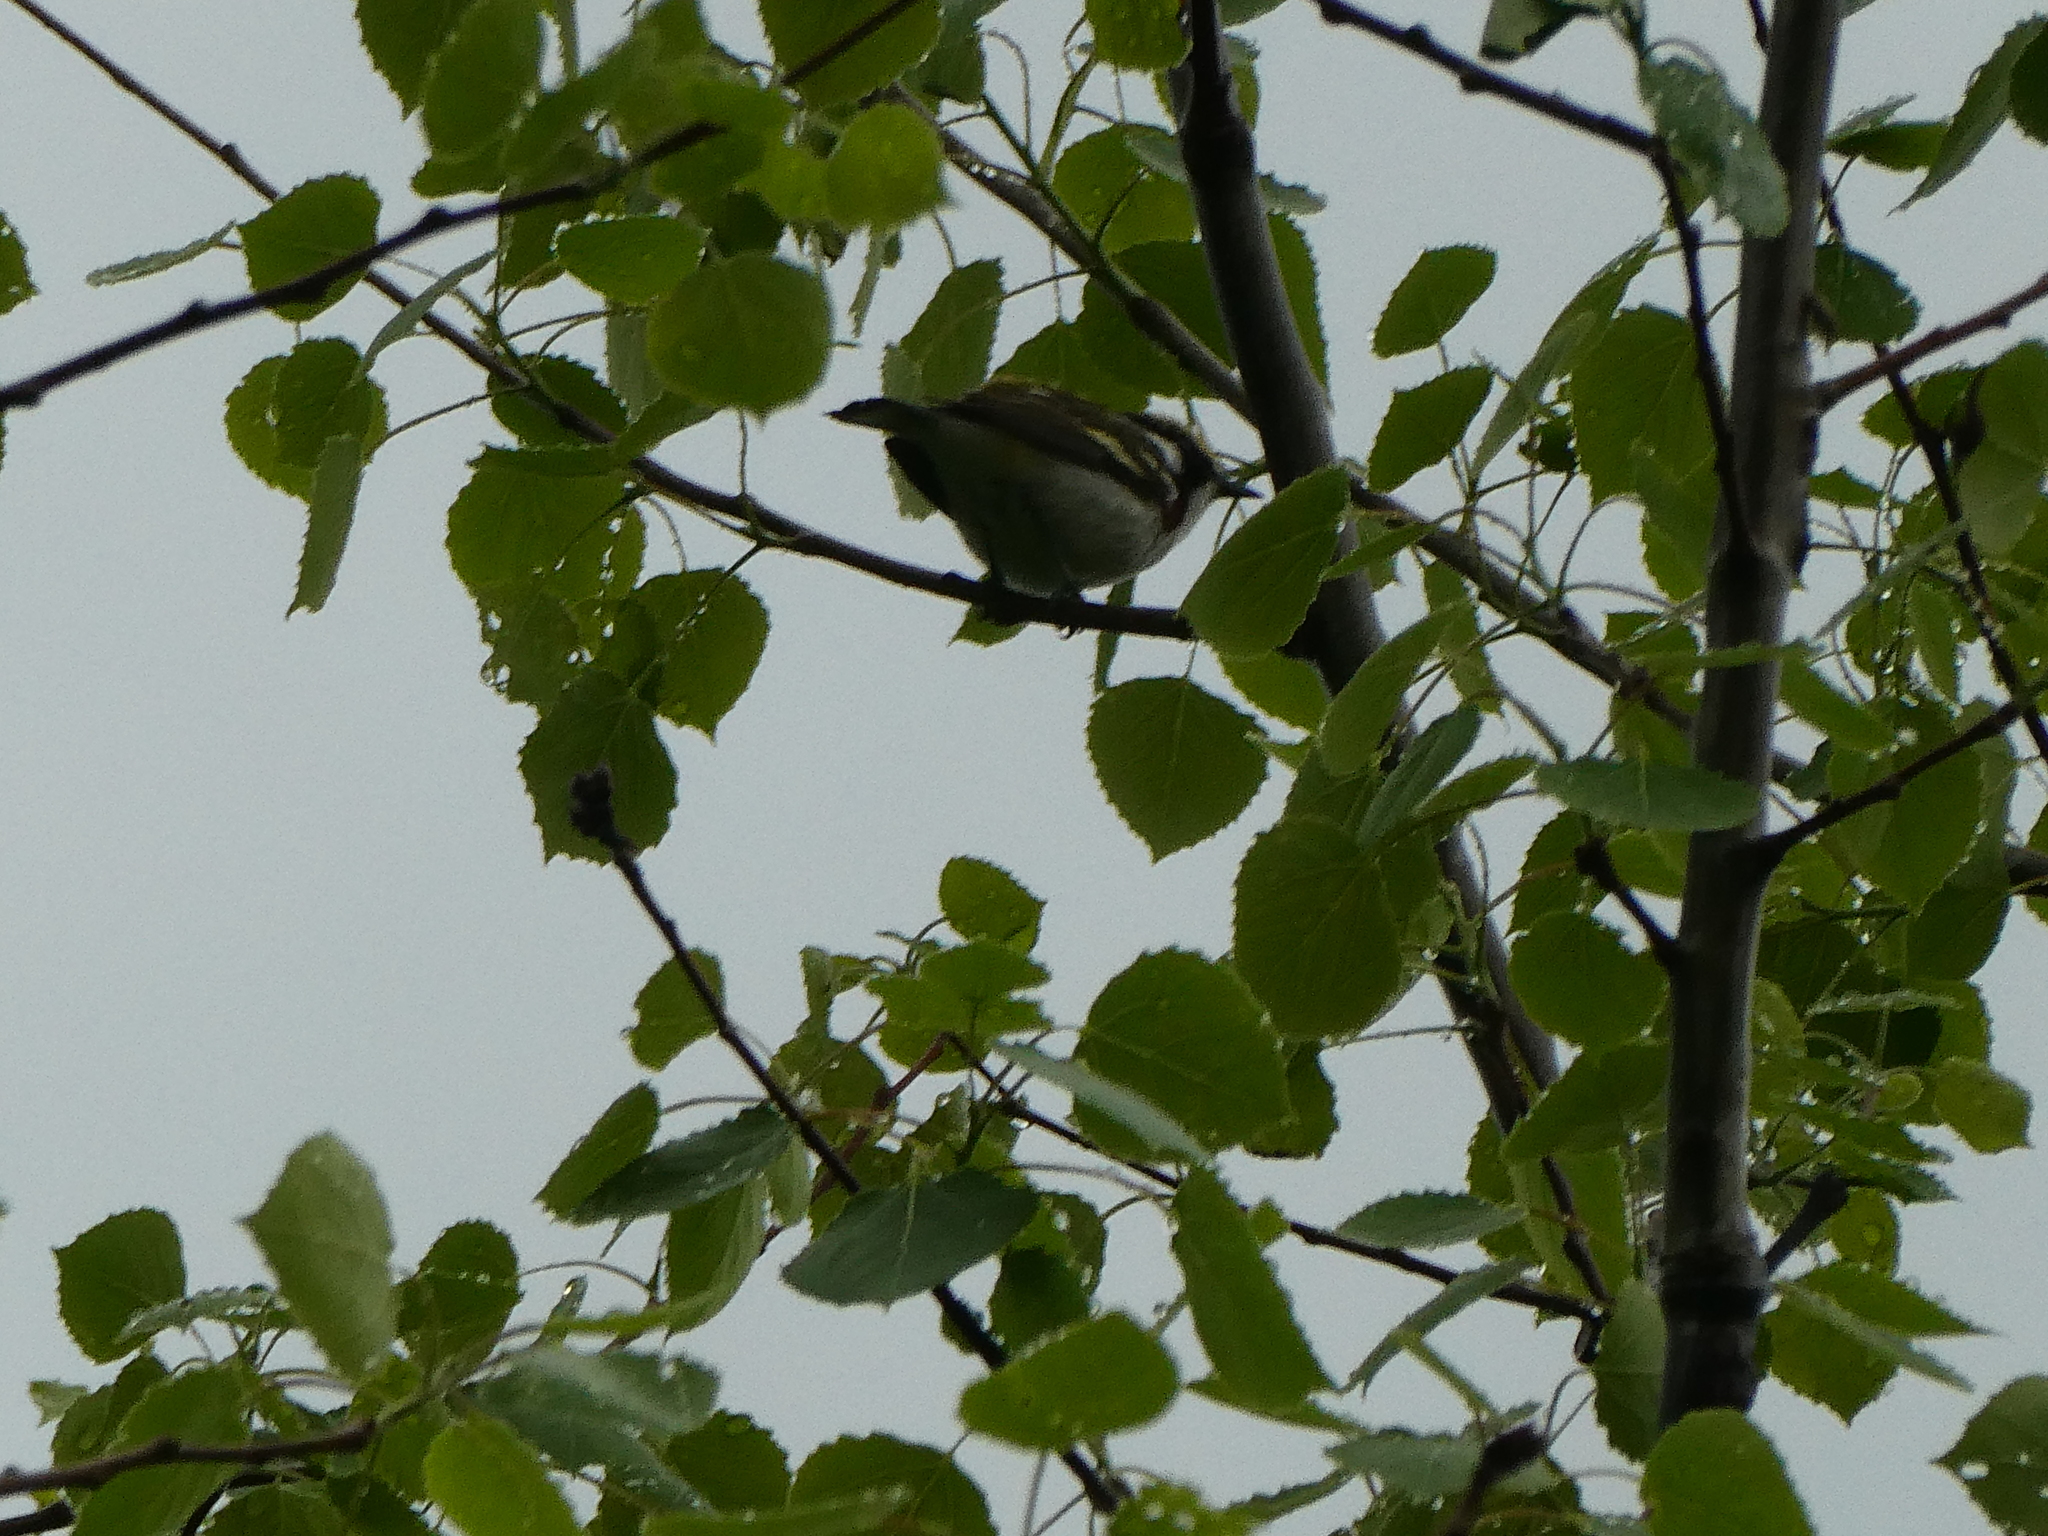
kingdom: Animalia
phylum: Chordata
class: Aves
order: Passeriformes
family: Parulidae
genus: Setophaga
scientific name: Setophaga pensylvanica
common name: Chestnut-sided warbler
